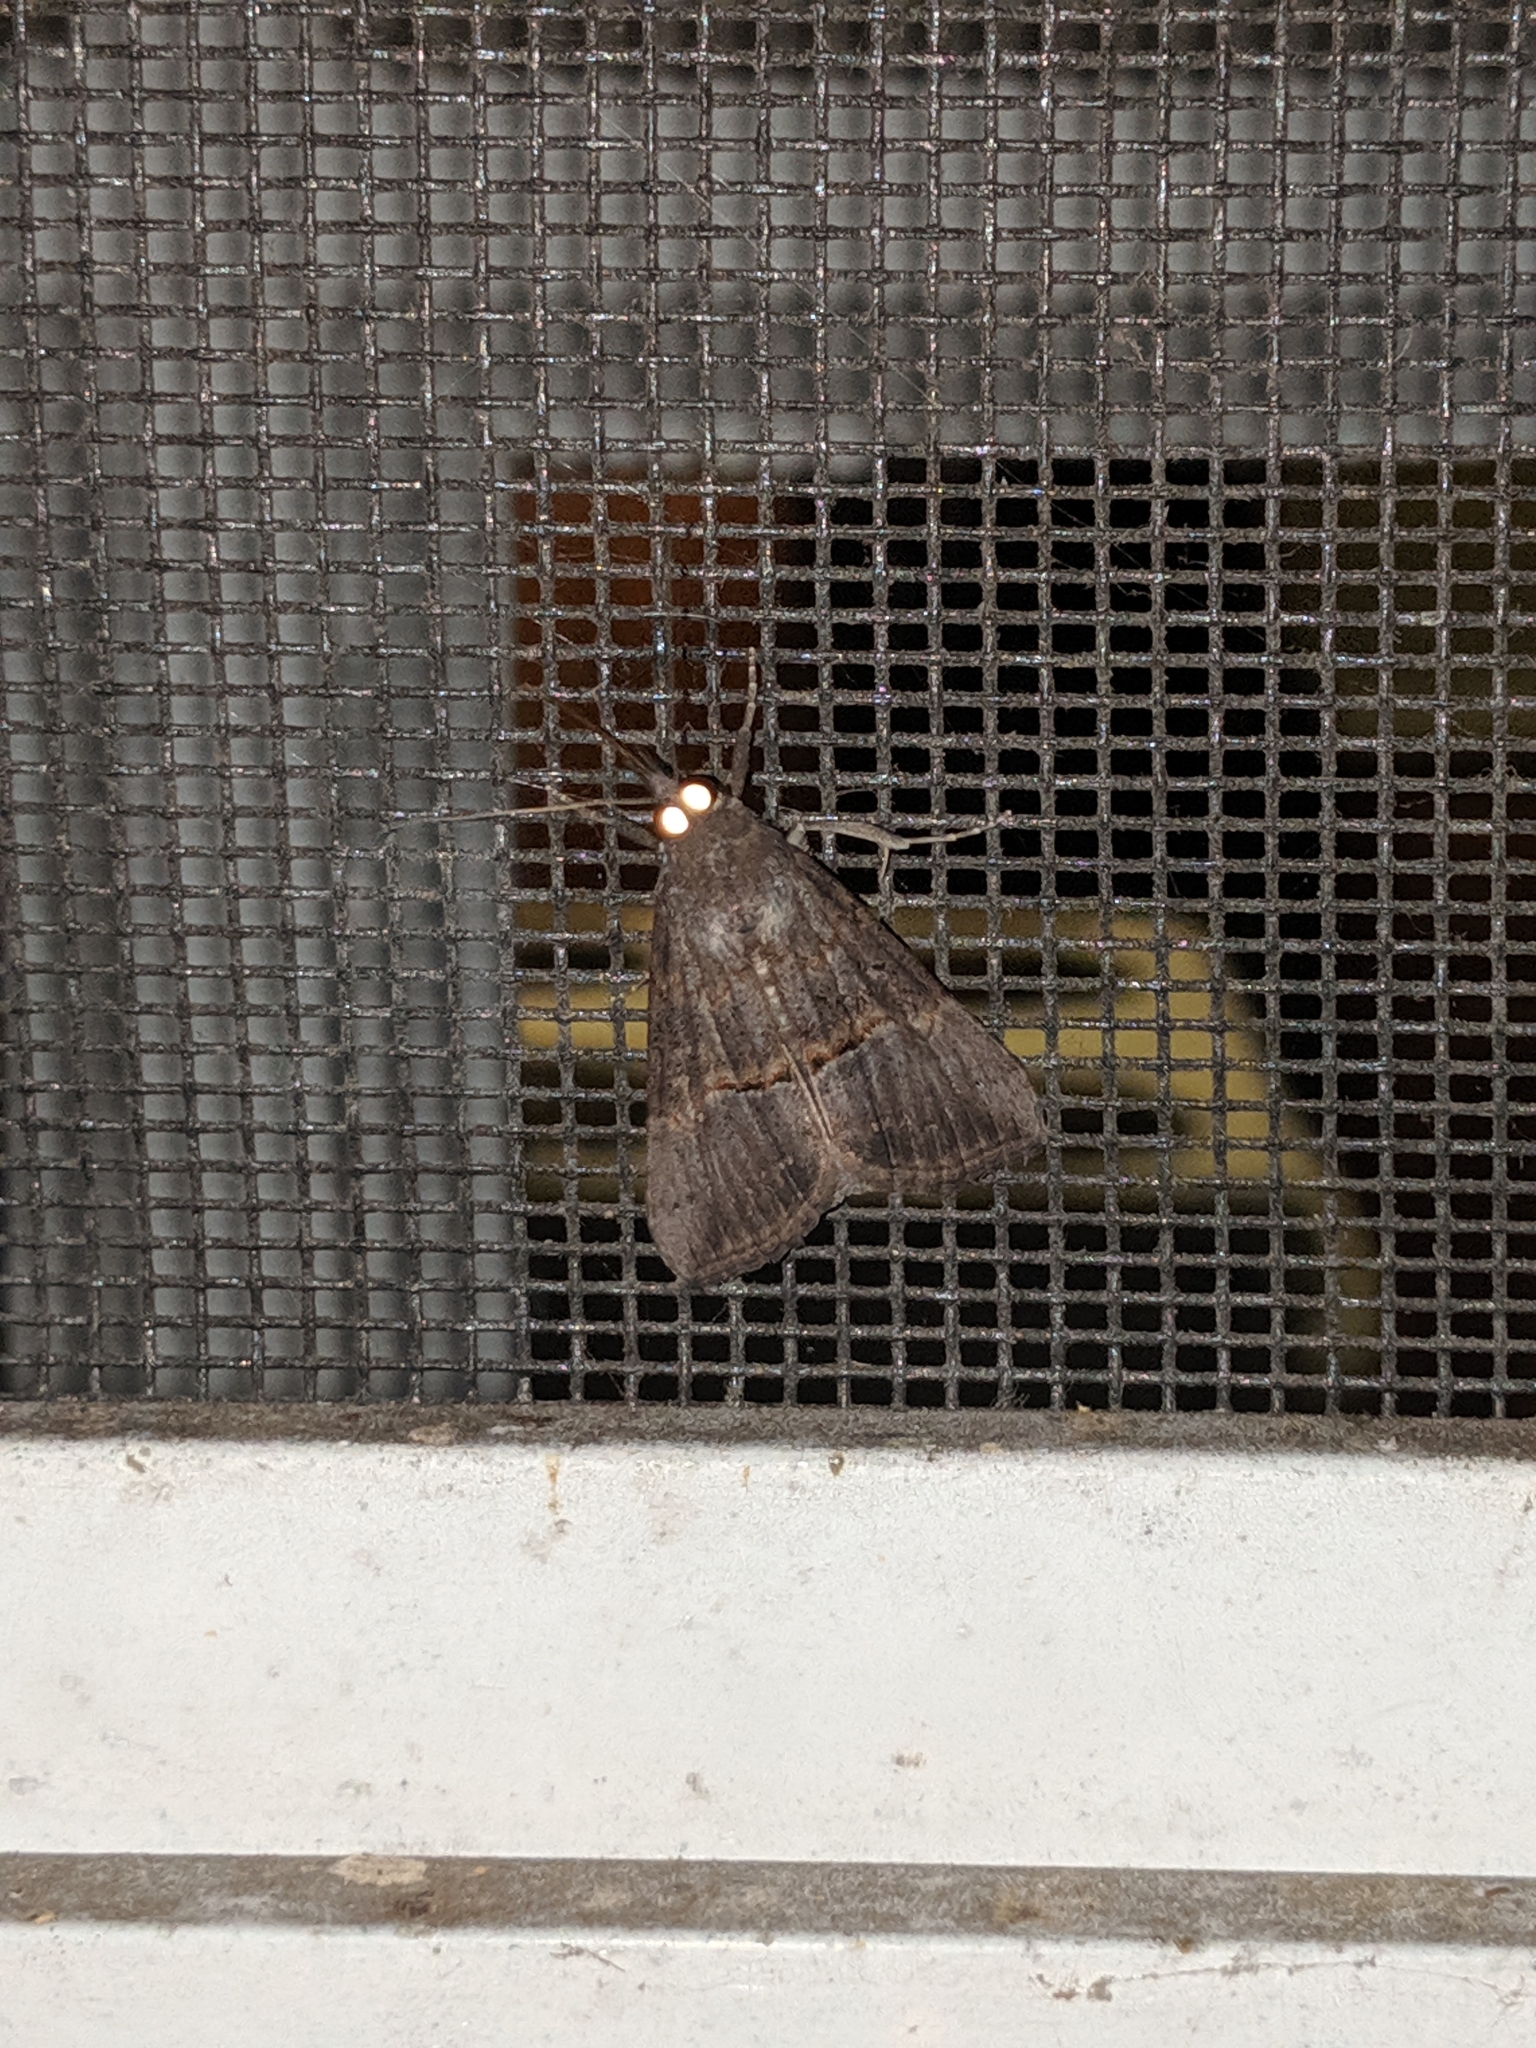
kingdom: Animalia
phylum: Arthropoda
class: Insecta
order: Lepidoptera
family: Erebidae
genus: Hypena
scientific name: Hypena scabra
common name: Green cloverworm
